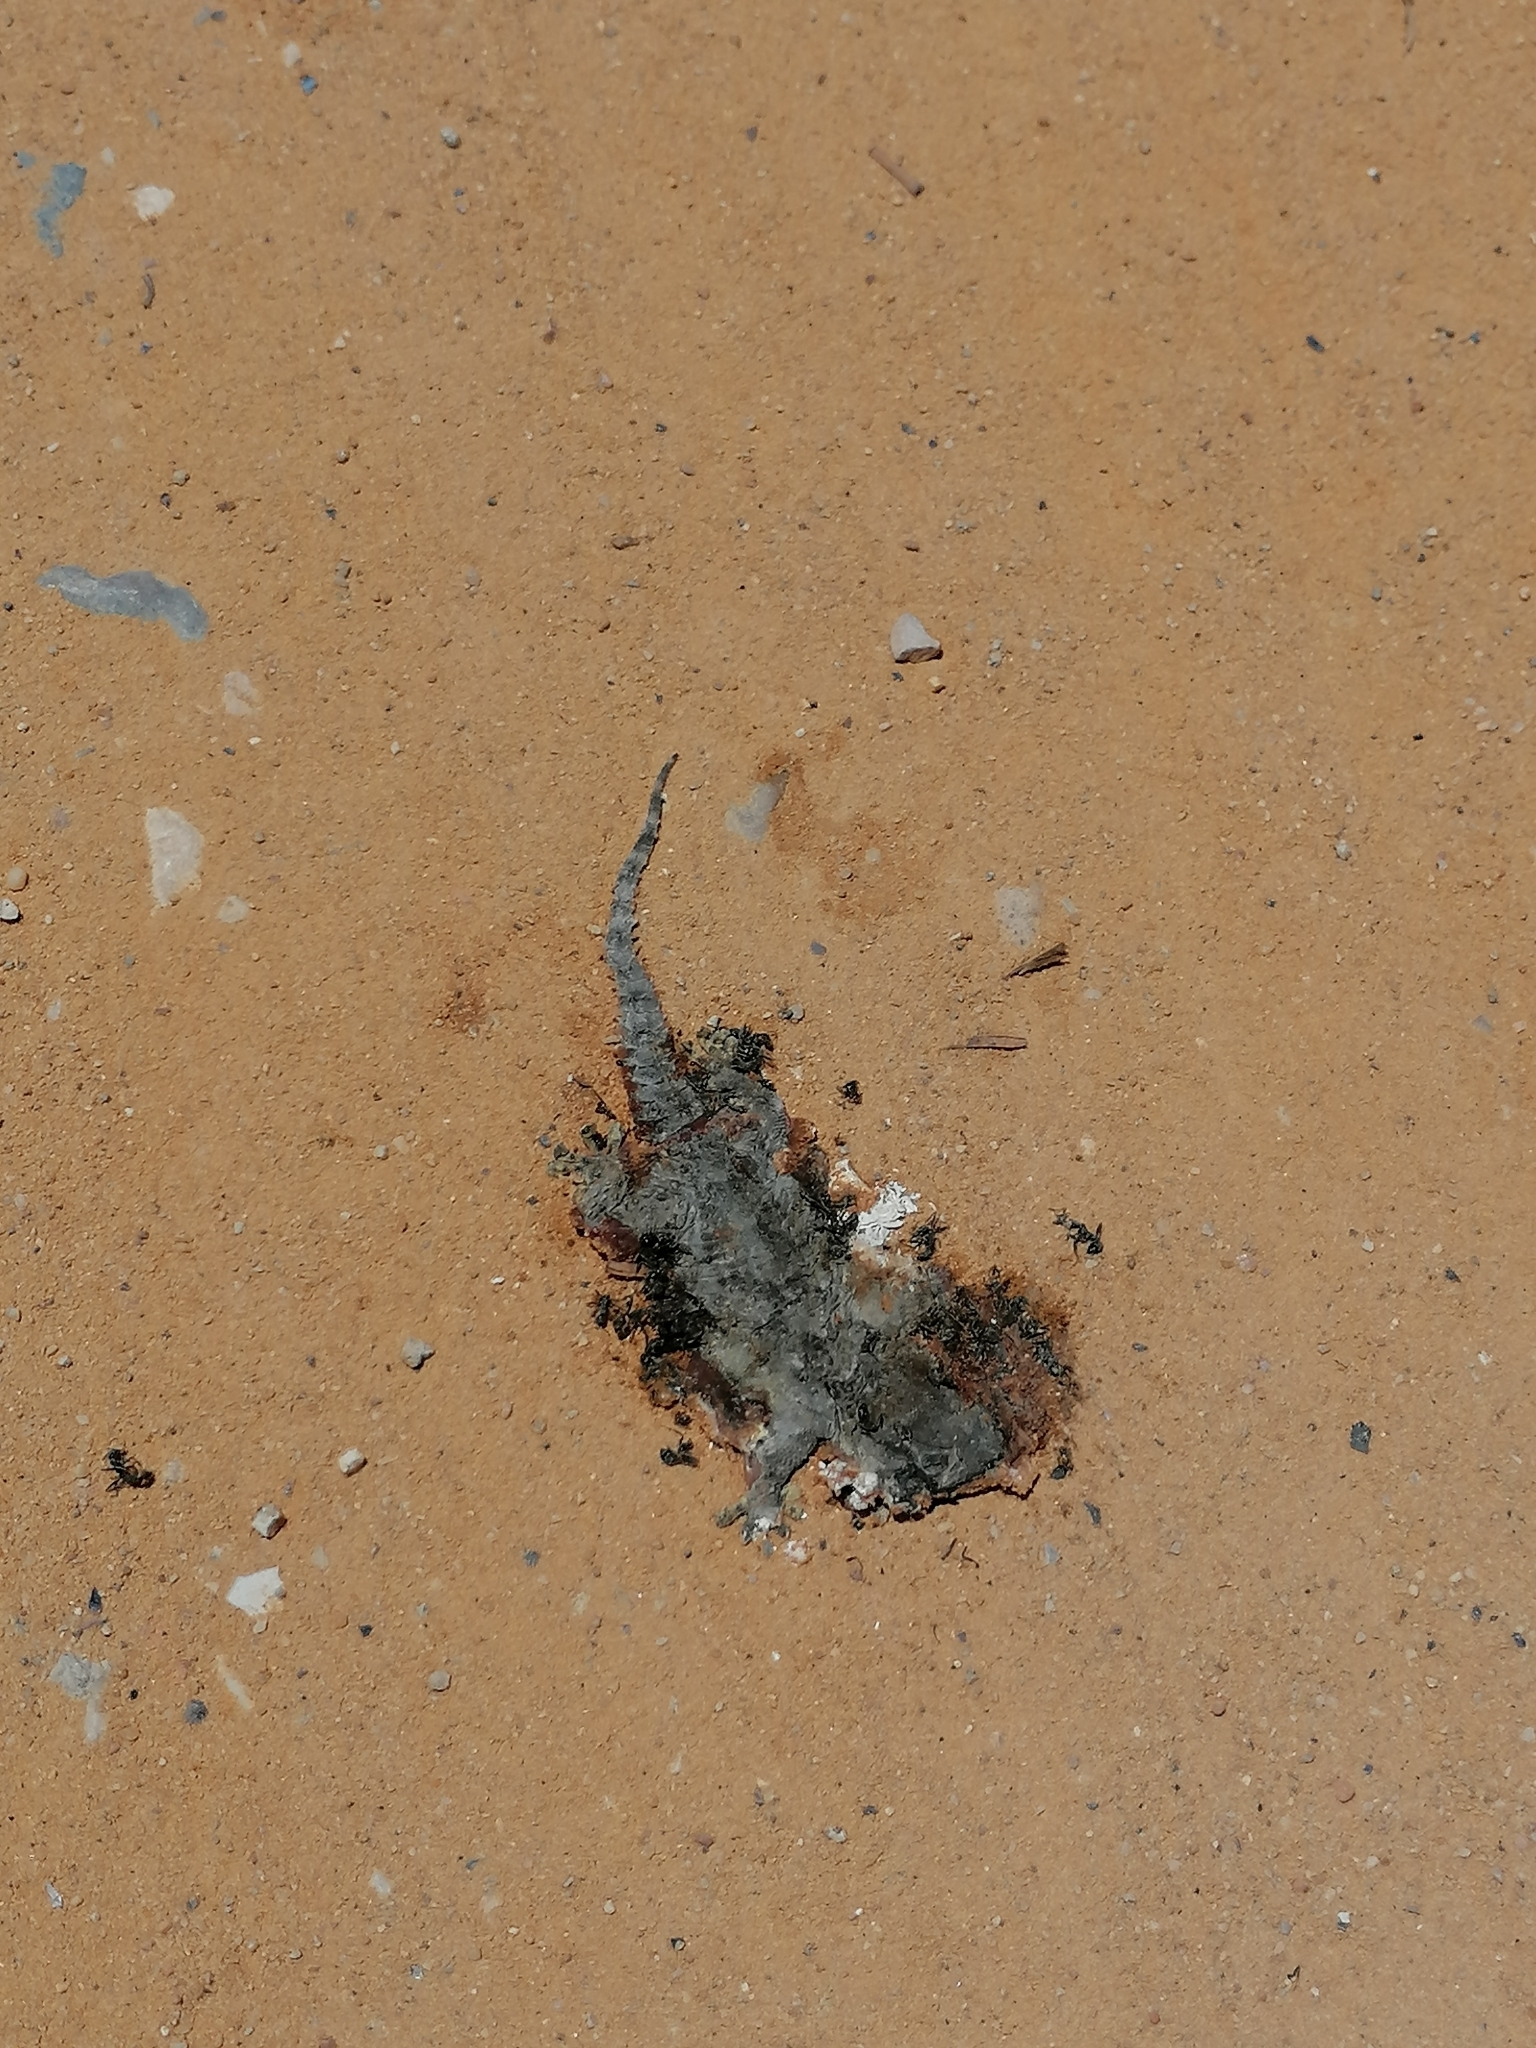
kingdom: Animalia
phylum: Chordata
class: Squamata
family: Phyllodactylidae
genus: Tarentola
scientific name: Tarentola mauritanica
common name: Moorish gecko
